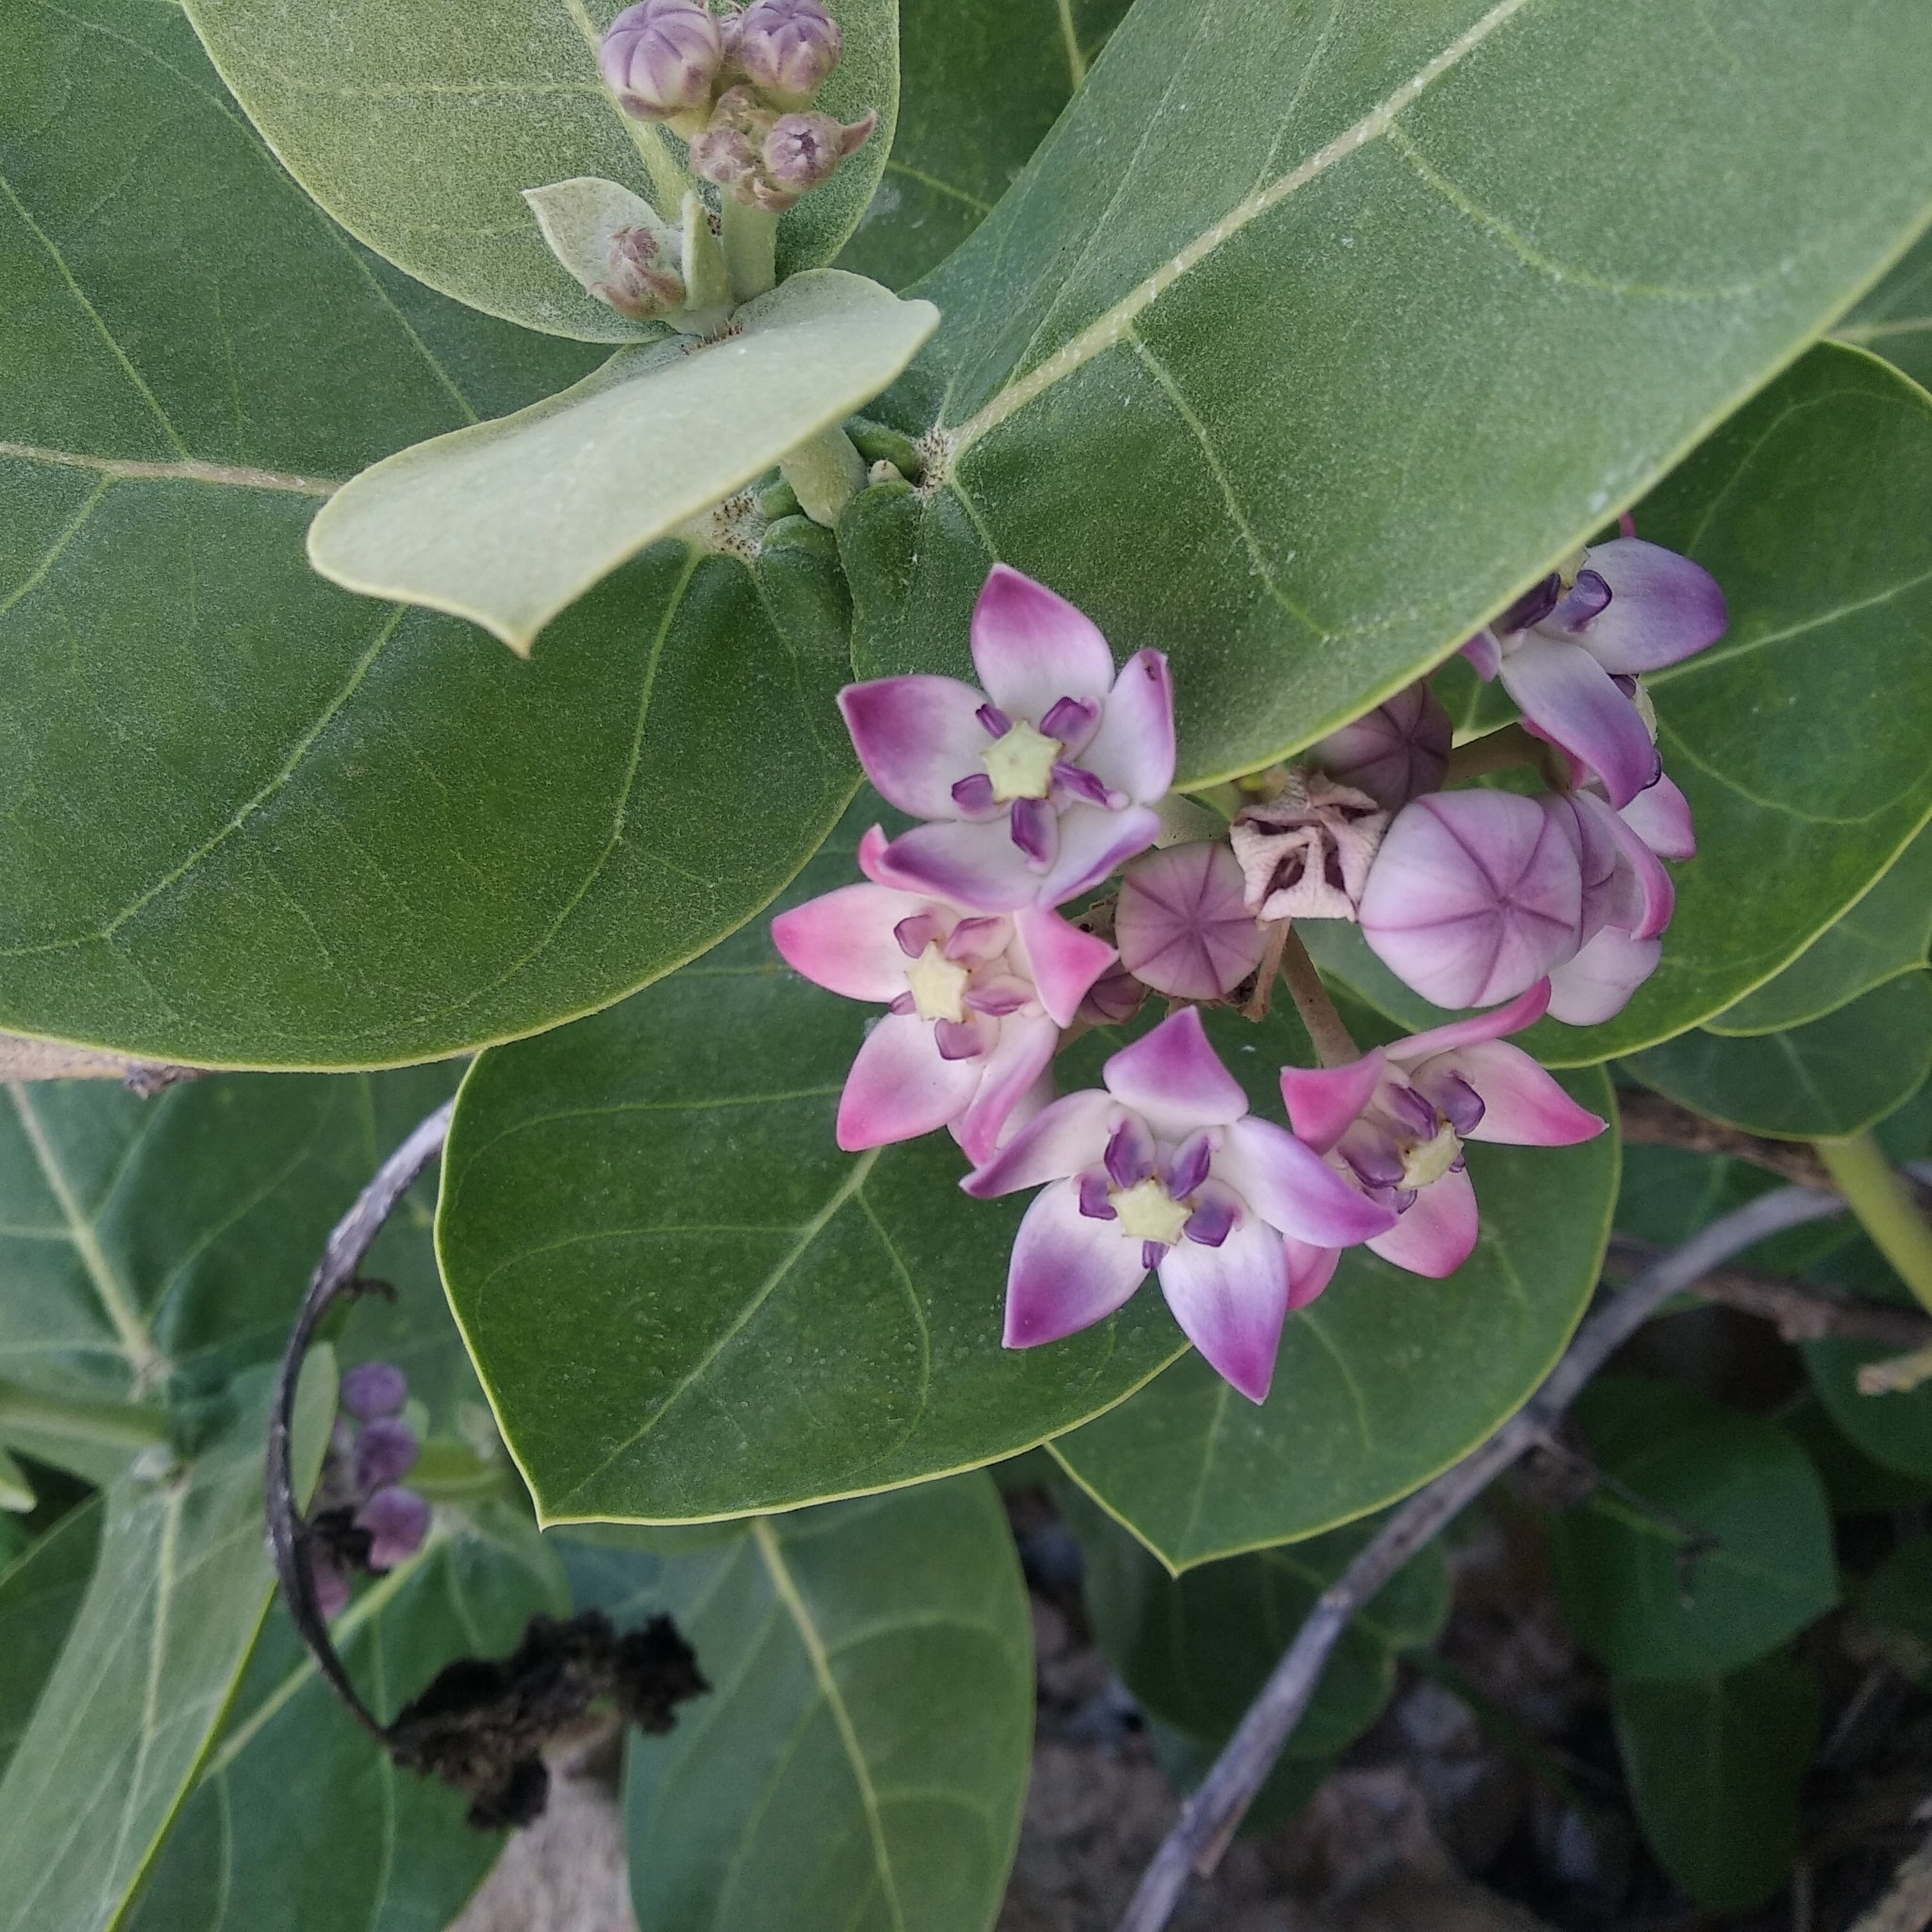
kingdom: Plantae
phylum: Tracheophyta
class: Magnoliopsida
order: Gentianales
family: Apocynaceae
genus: Calotropis
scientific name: Calotropis procera
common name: Roostertree
